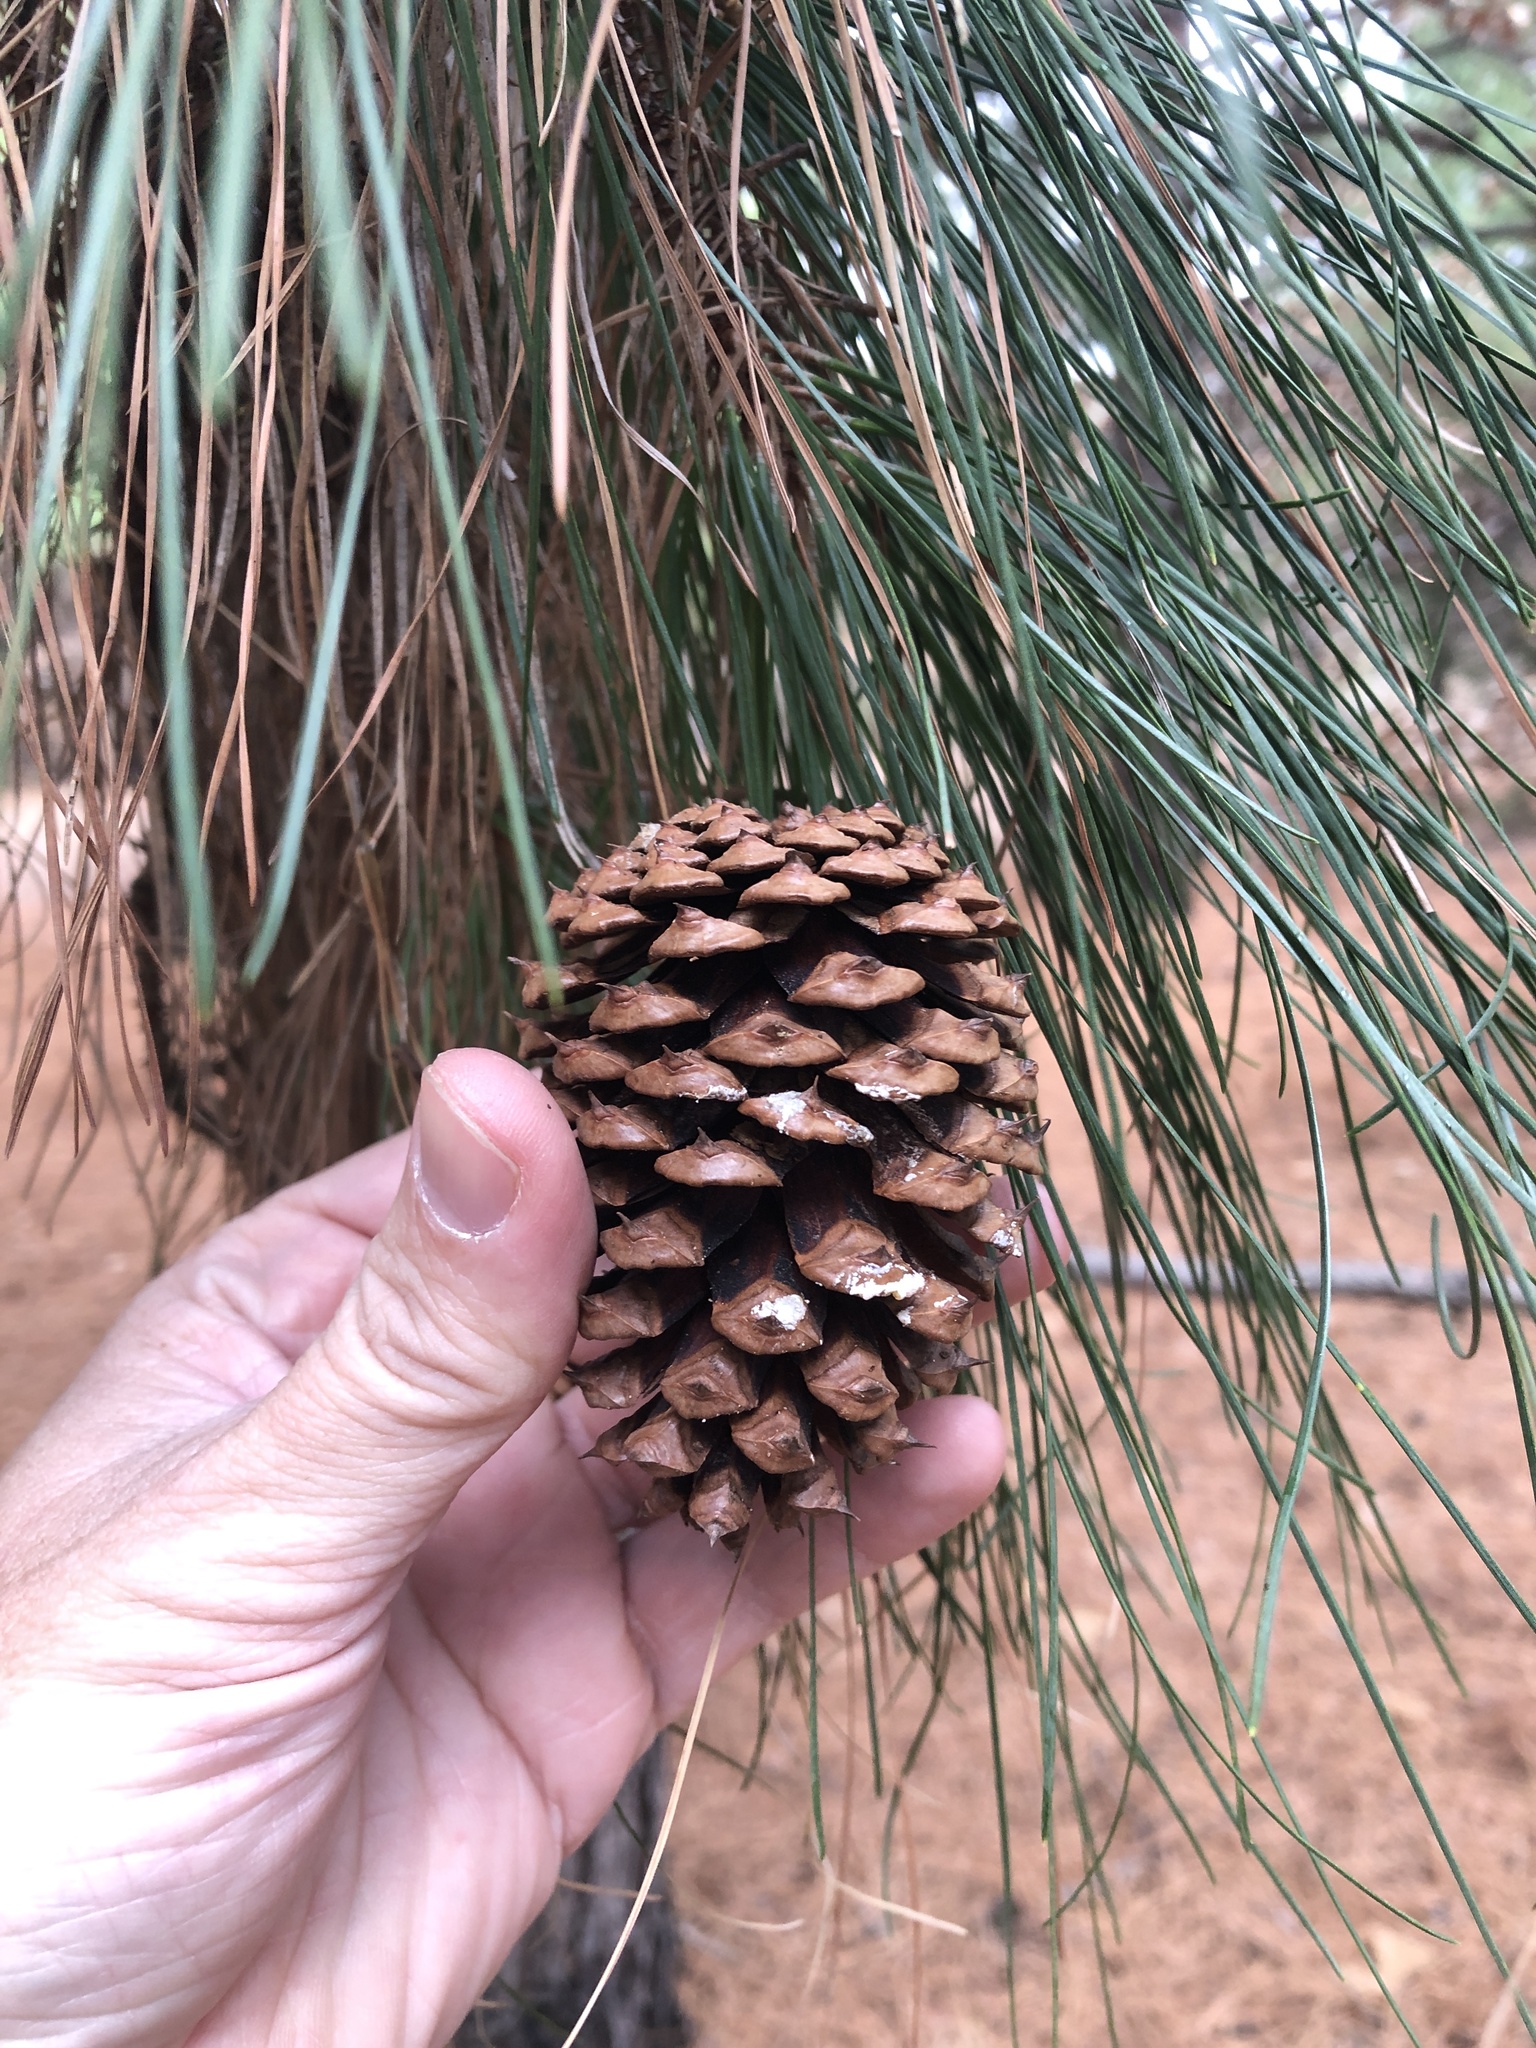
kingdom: Plantae
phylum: Tracheophyta
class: Pinopsida
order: Pinales
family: Pinaceae
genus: Pinus
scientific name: Pinus taeda
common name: Loblolly pine
